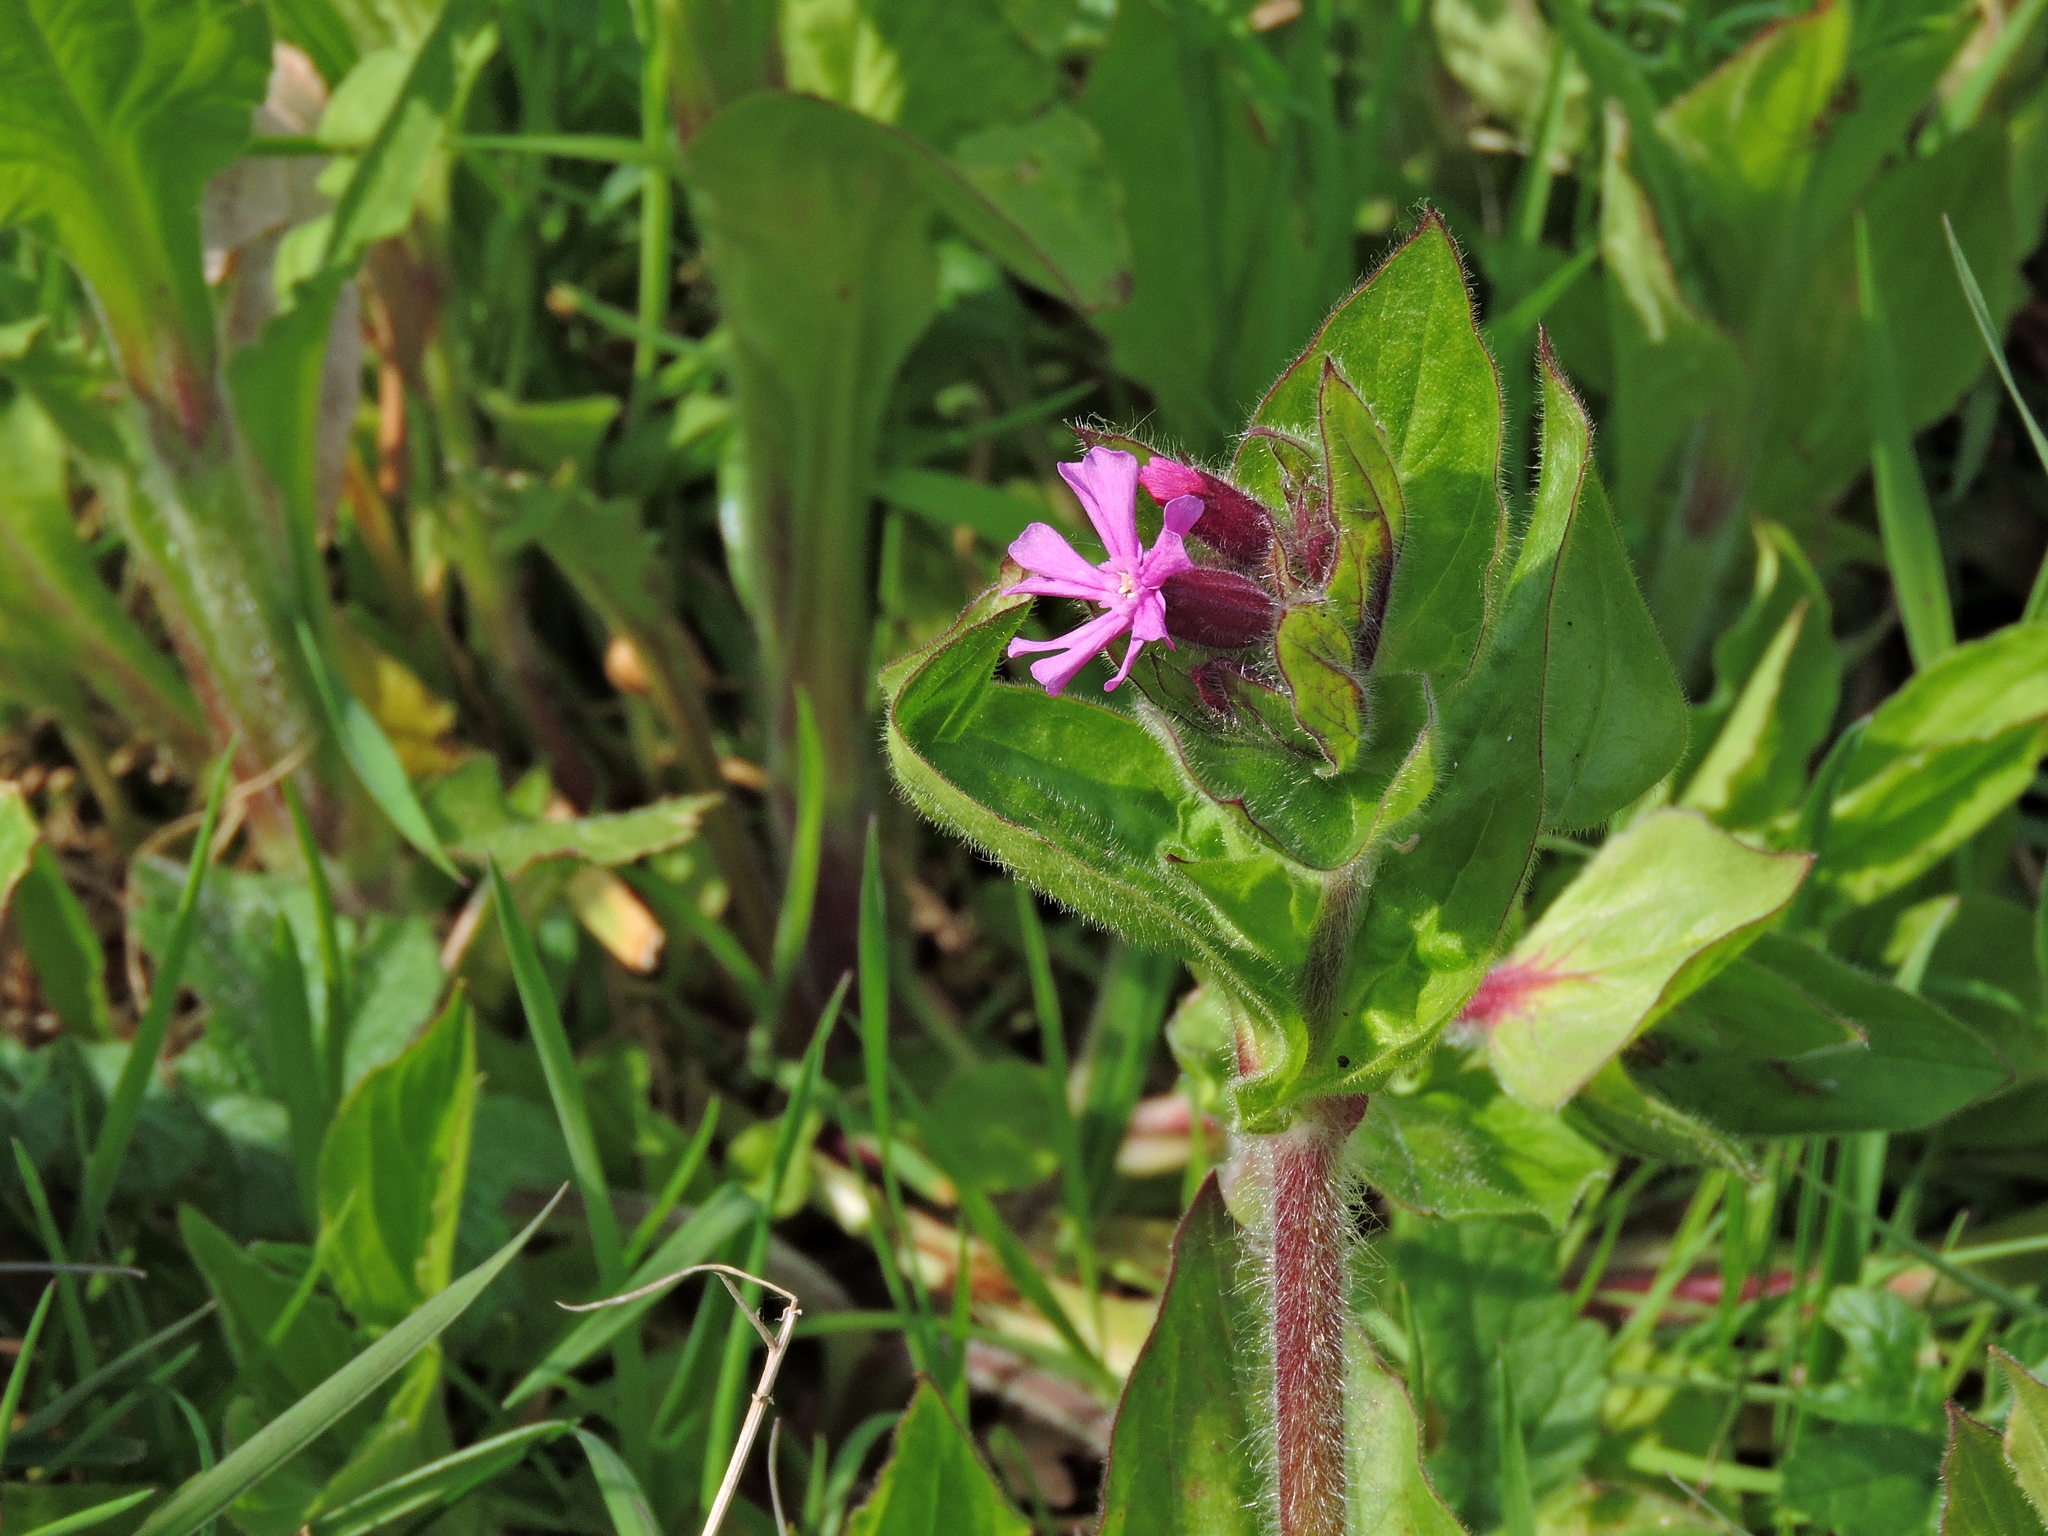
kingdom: Plantae
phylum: Tracheophyta
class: Magnoliopsida
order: Caryophyllales
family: Caryophyllaceae
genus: Silene
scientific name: Silene dioica
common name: Red campion
